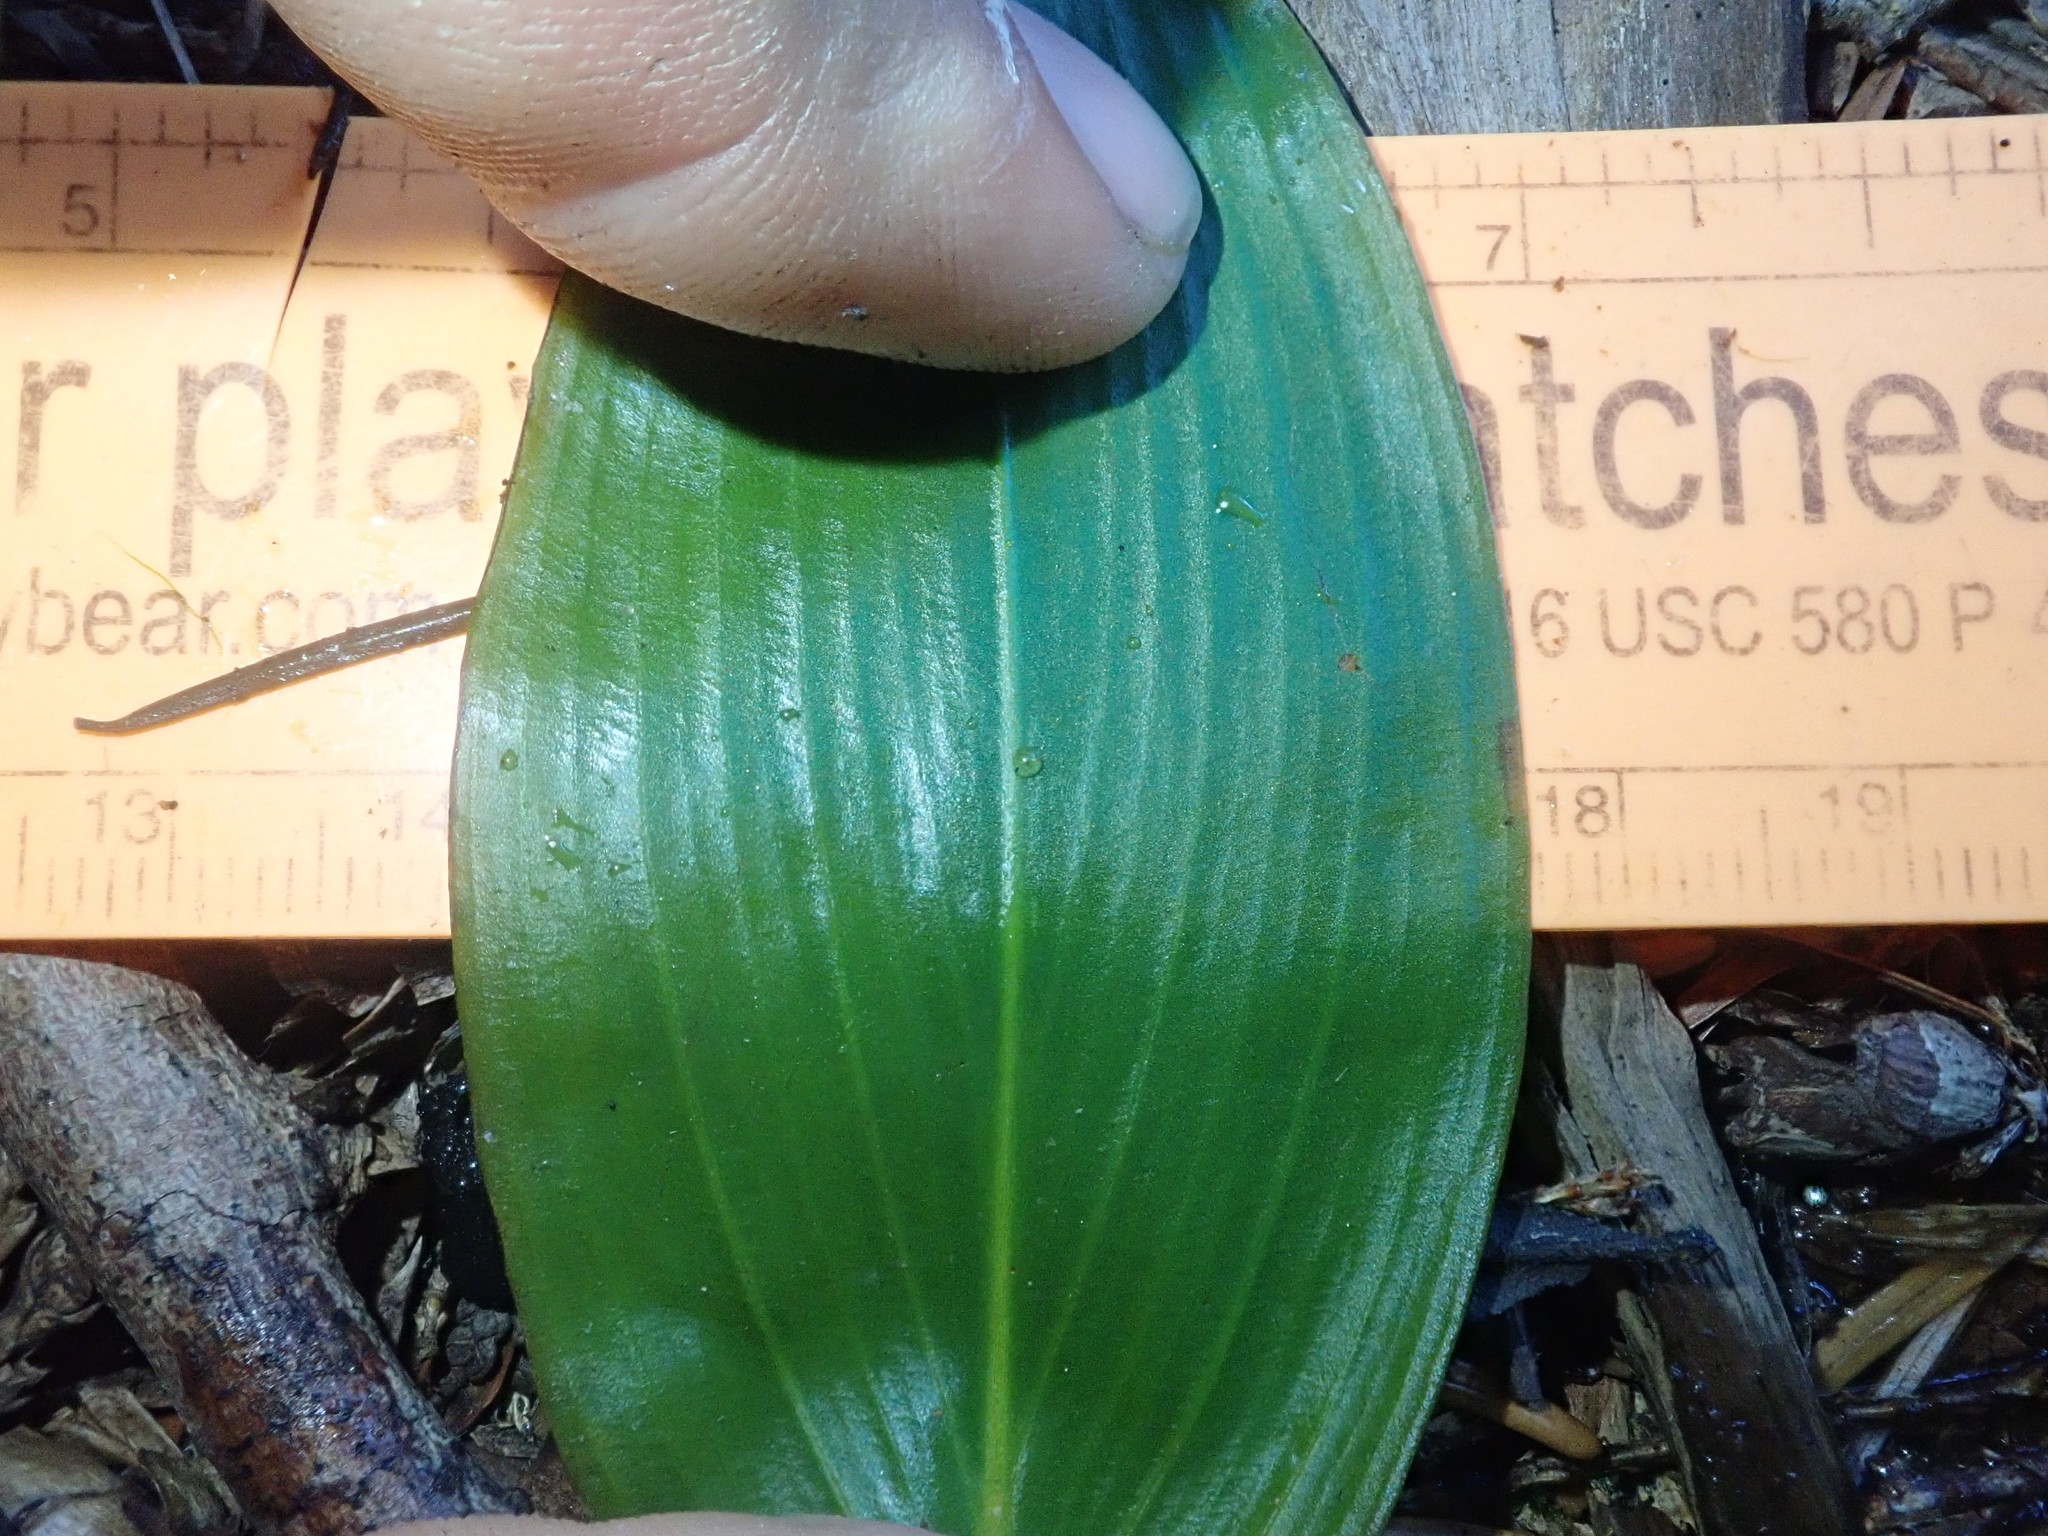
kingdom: Plantae
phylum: Tracheophyta
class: Liliopsida
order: Alismatales
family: Potamogetonaceae
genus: Potamogeton
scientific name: Potamogeton amplifolius
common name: Broad-leaved pondweed
